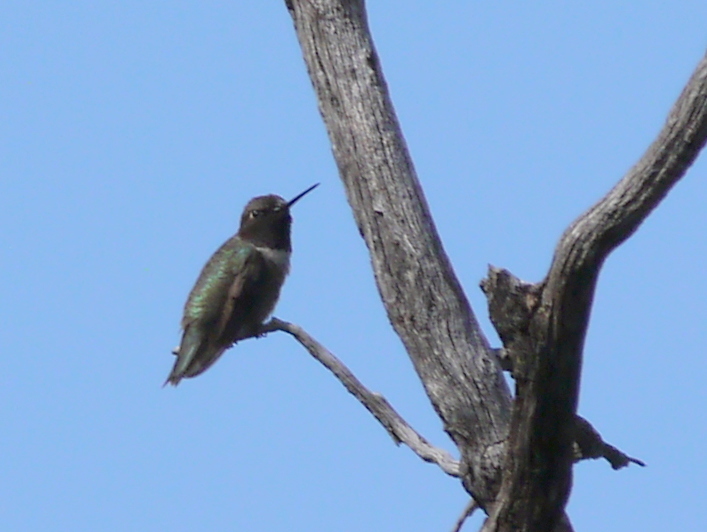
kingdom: Animalia
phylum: Chordata
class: Aves
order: Apodiformes
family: Trochilidae
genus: Archilochus
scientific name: Archilochus alexandri
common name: Black-chinned hummingbird
